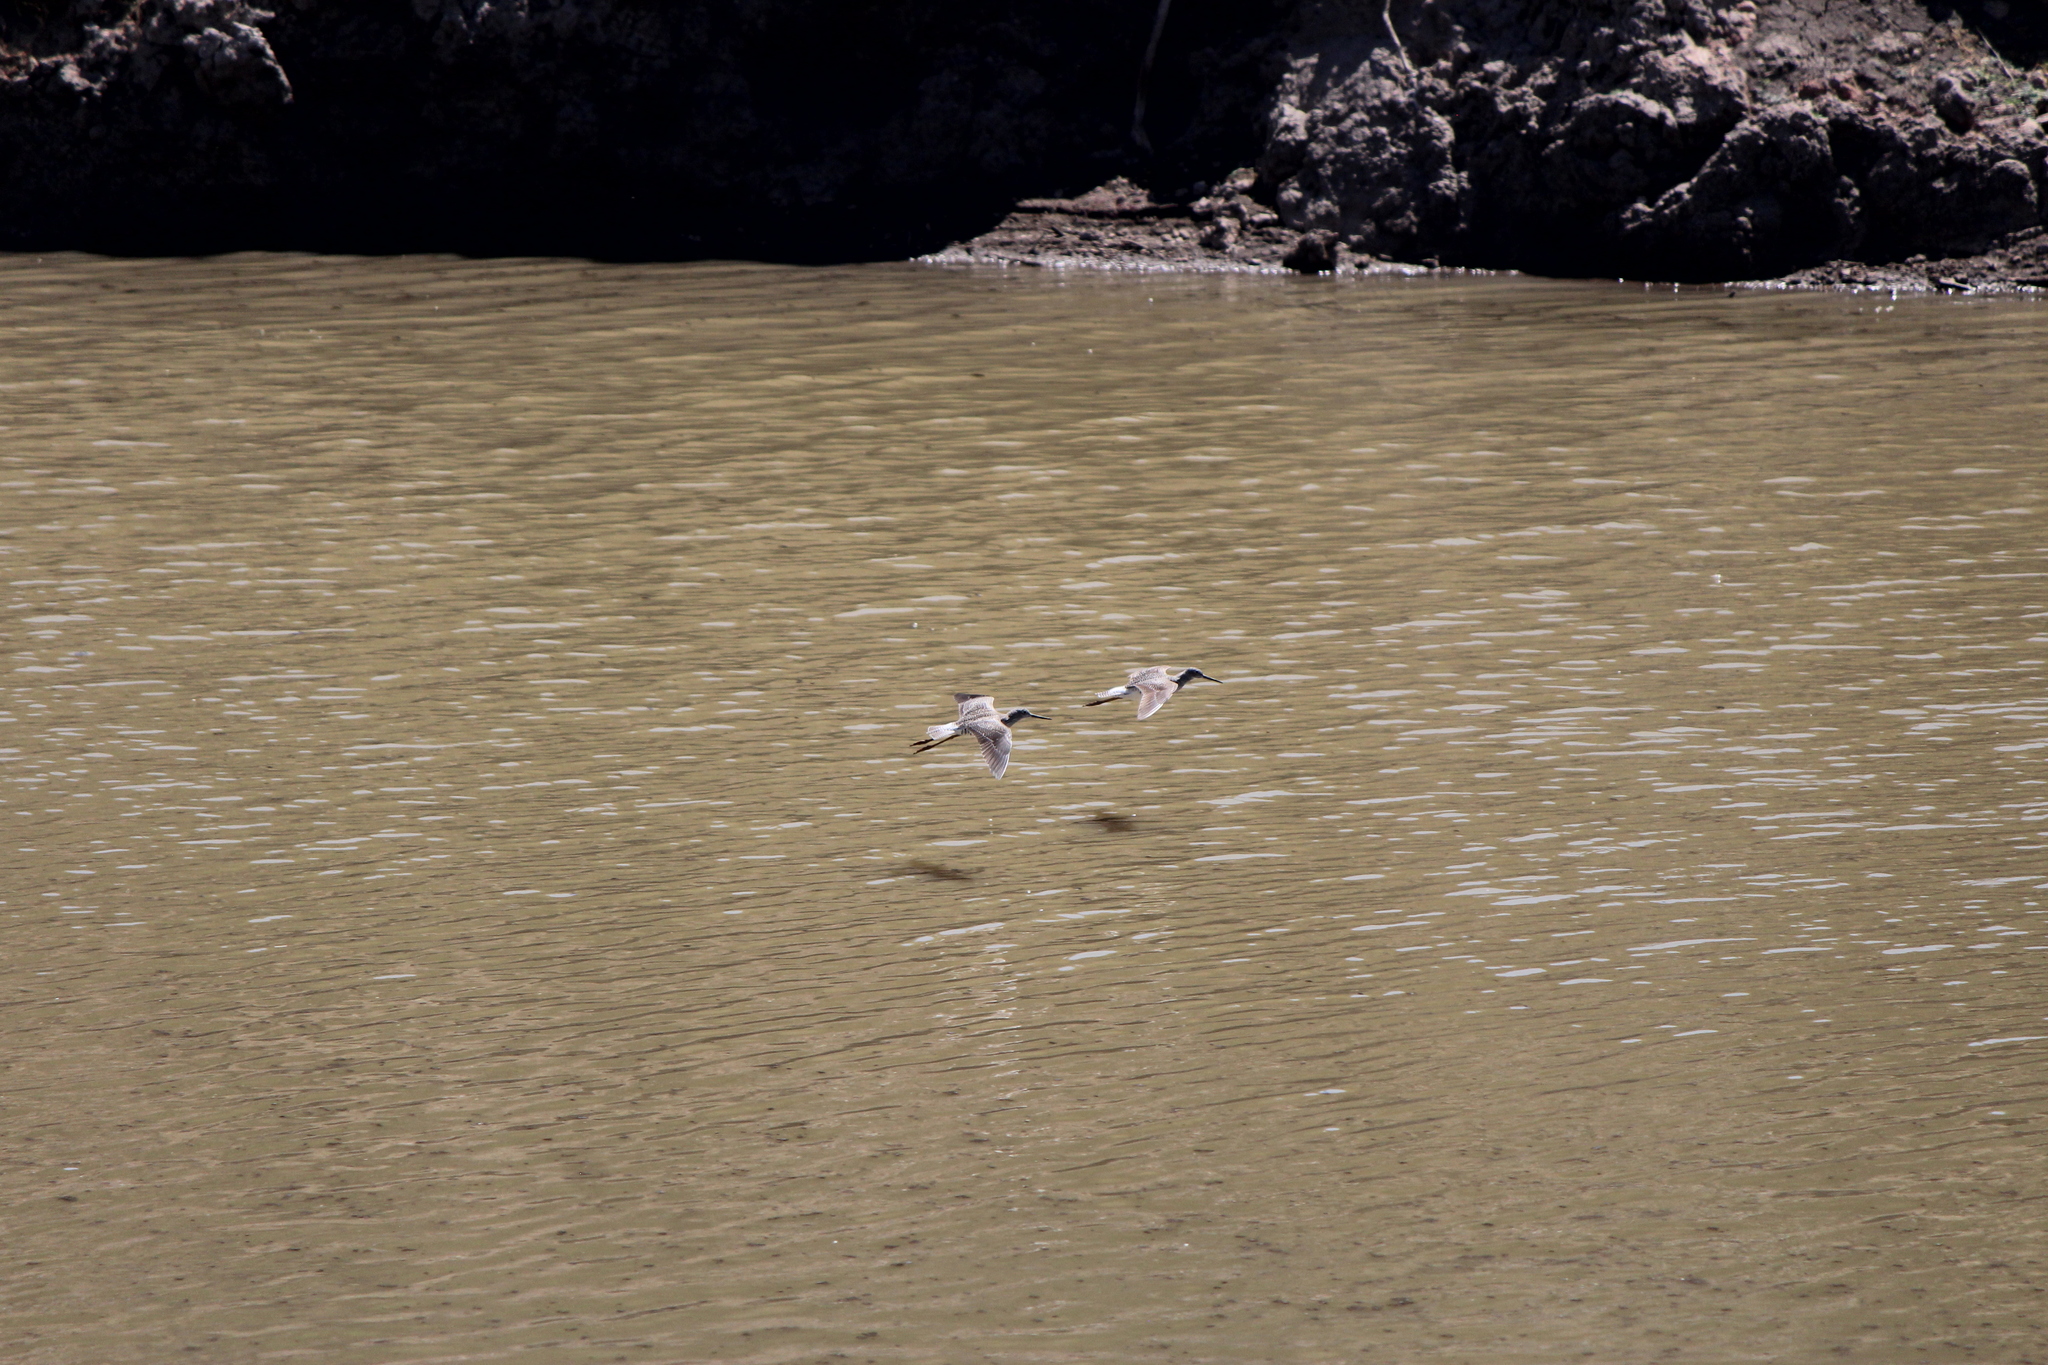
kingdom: Animalia
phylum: Chordata
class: Aves
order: Charadriiformes
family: Scolopacidae
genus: Tringa
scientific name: Tringa melanoleuca
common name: Greater yellowlegs
